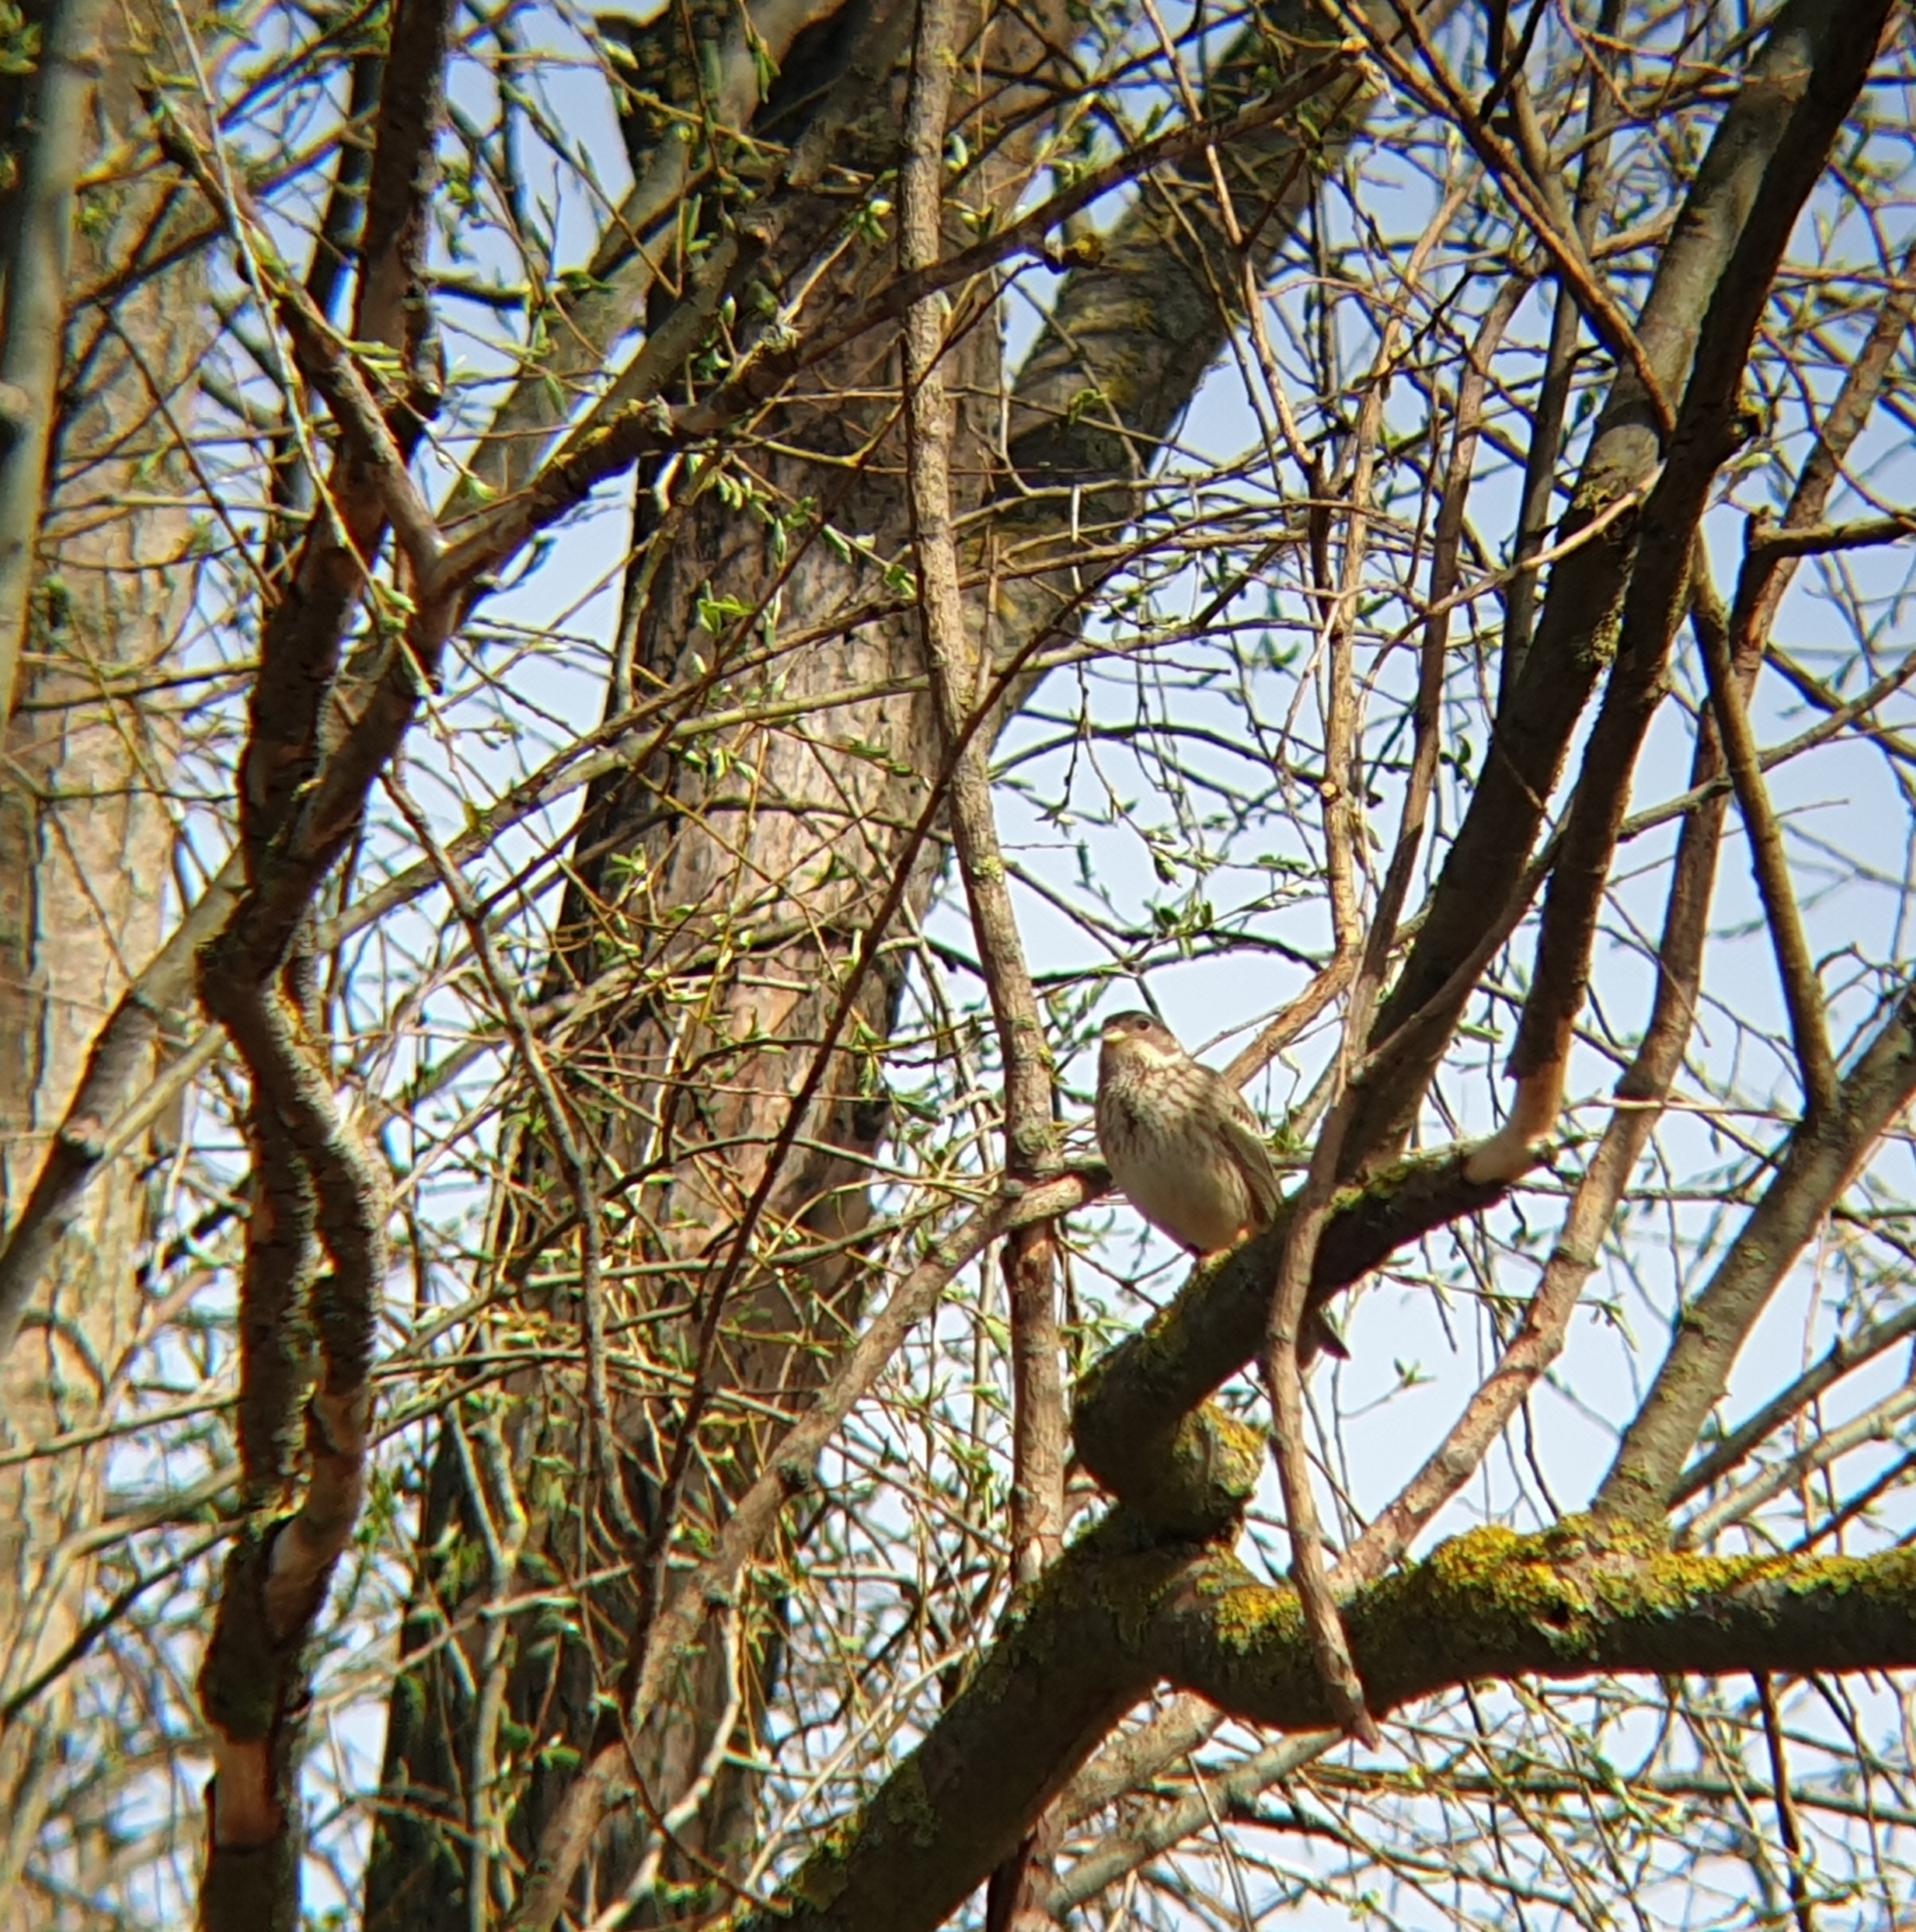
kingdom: Animalia
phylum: Chordata
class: Aves
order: Passeriformes
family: Emberizidae
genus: Emberiza
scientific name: Emberiza calandra
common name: Corn bunting
